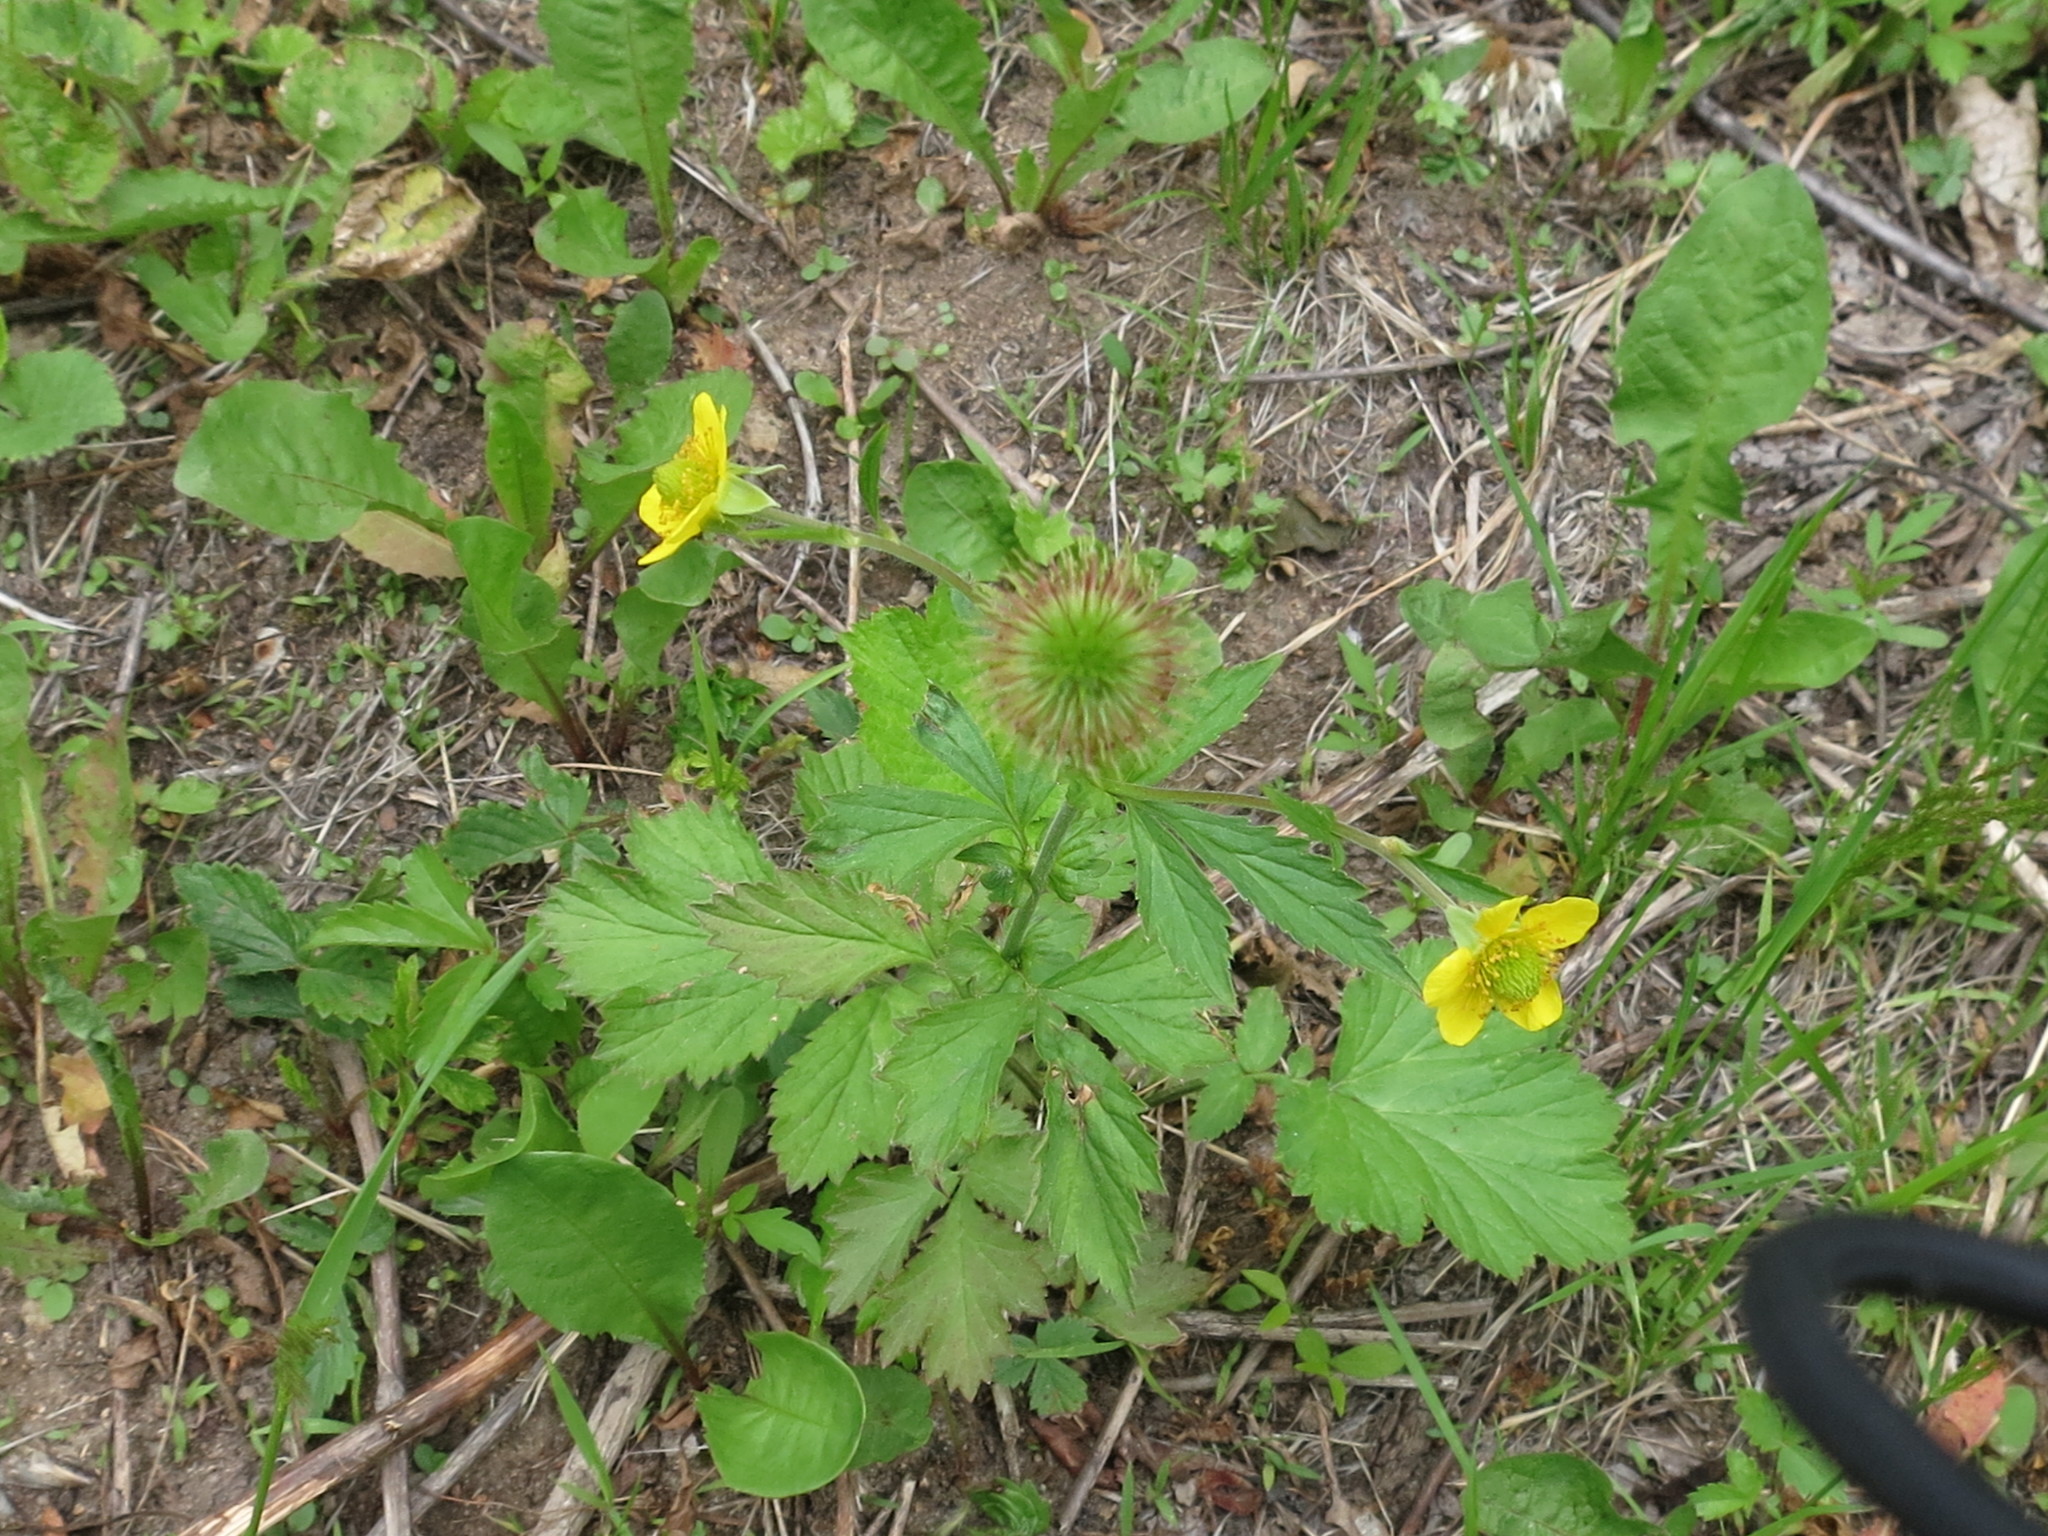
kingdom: Plantae
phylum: Tracheophyta
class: Magnoliopsida
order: Rosales
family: Rosaceae
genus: Geum
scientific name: Geum aleppicum
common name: Yellow avens
